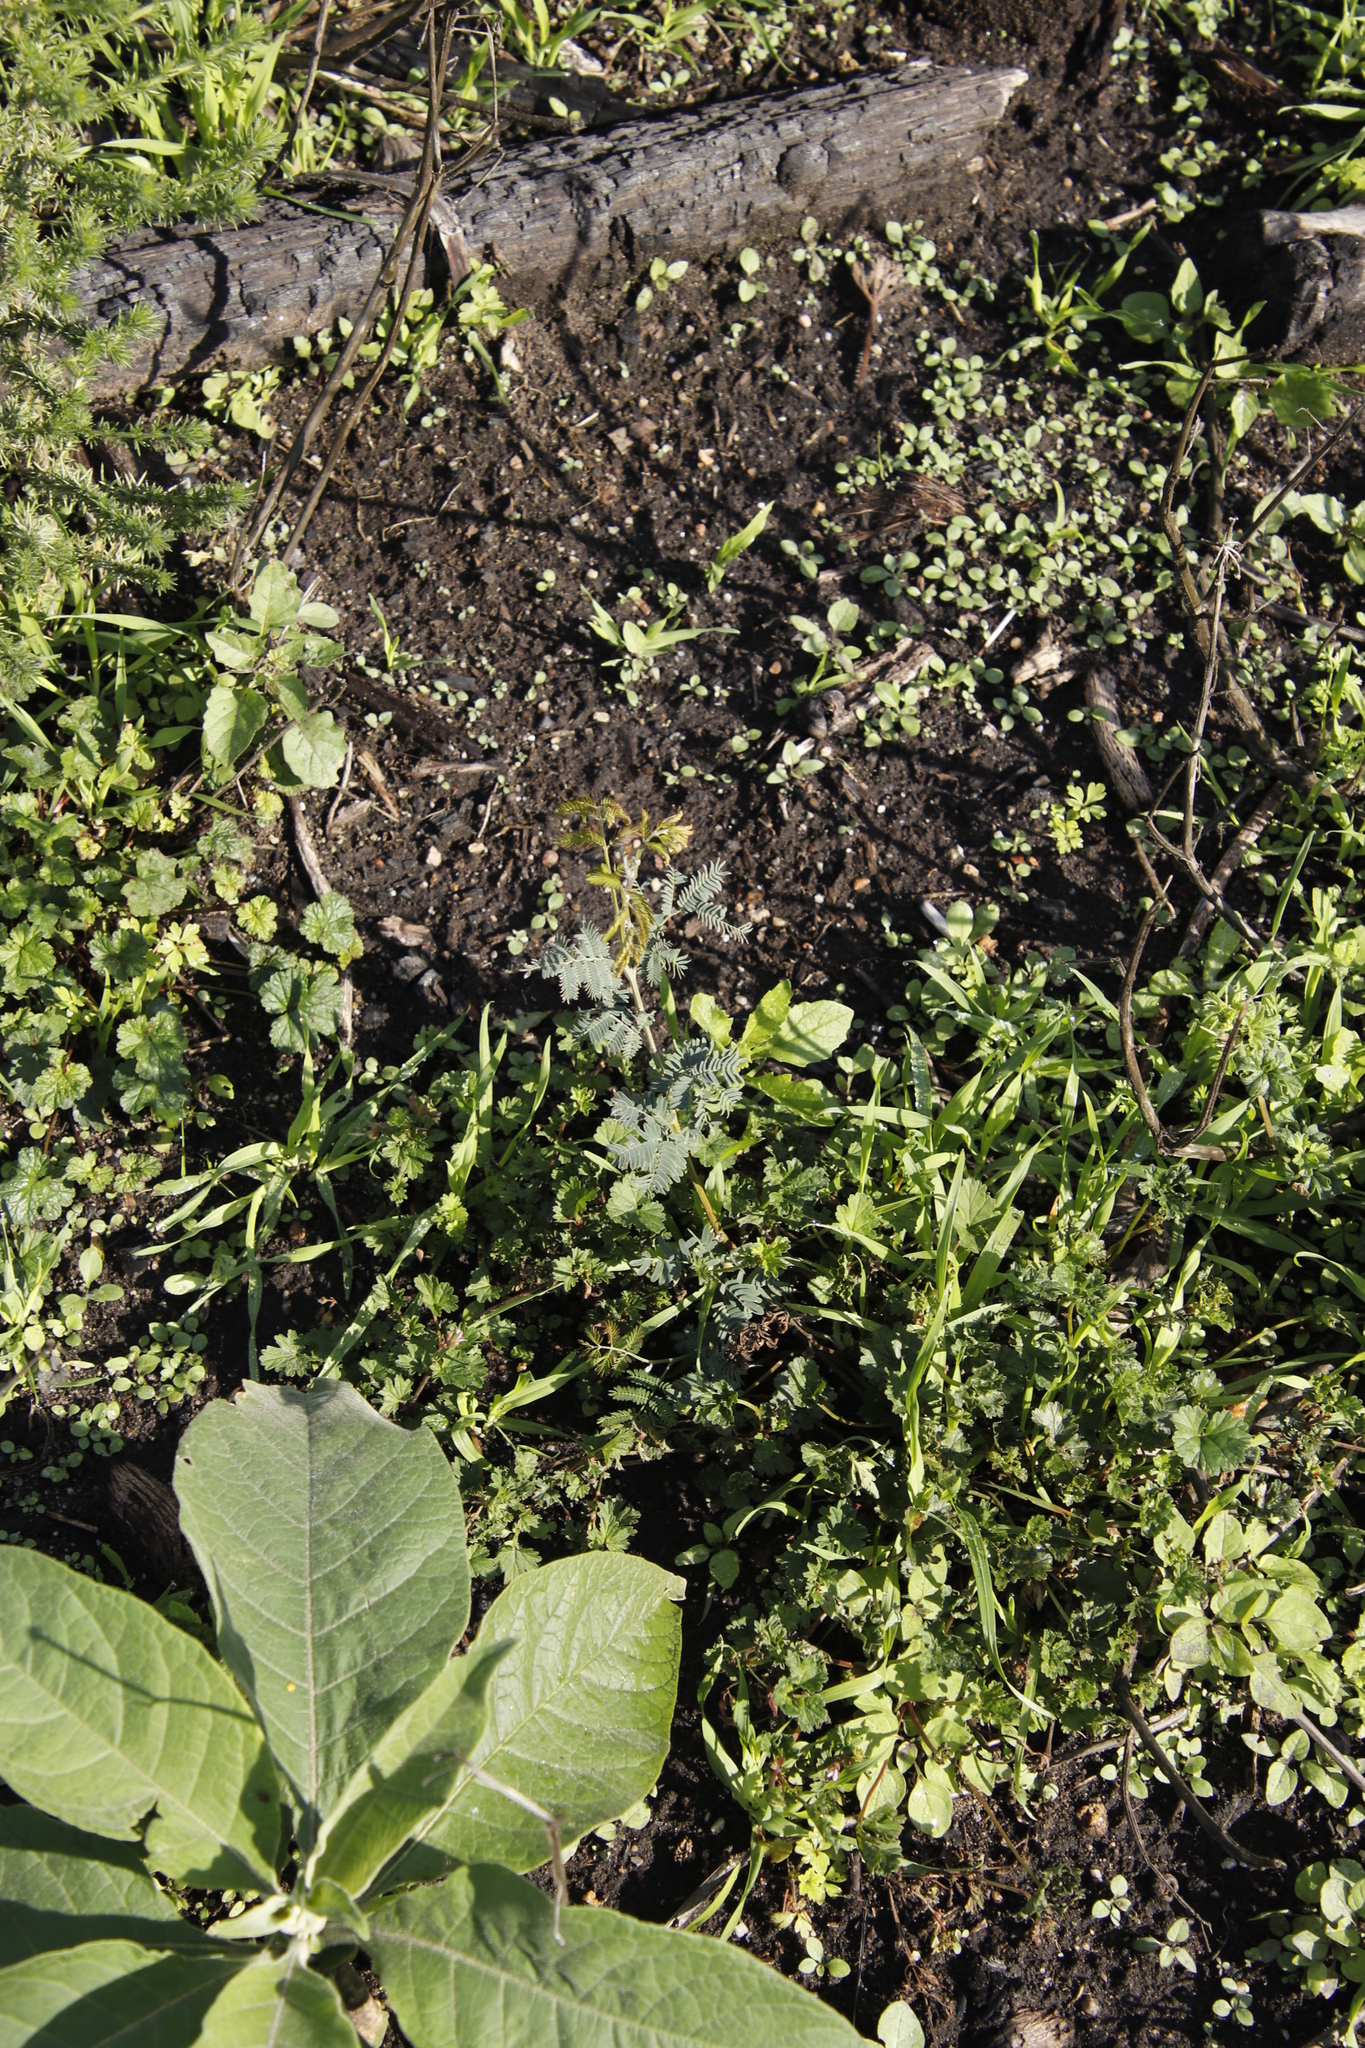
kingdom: Plantae
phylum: Tracheophyta
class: Magnoliopsida
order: Fabales
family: Fabaceae
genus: Acacia
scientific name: Acacia mearnsii
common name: Black wattle
